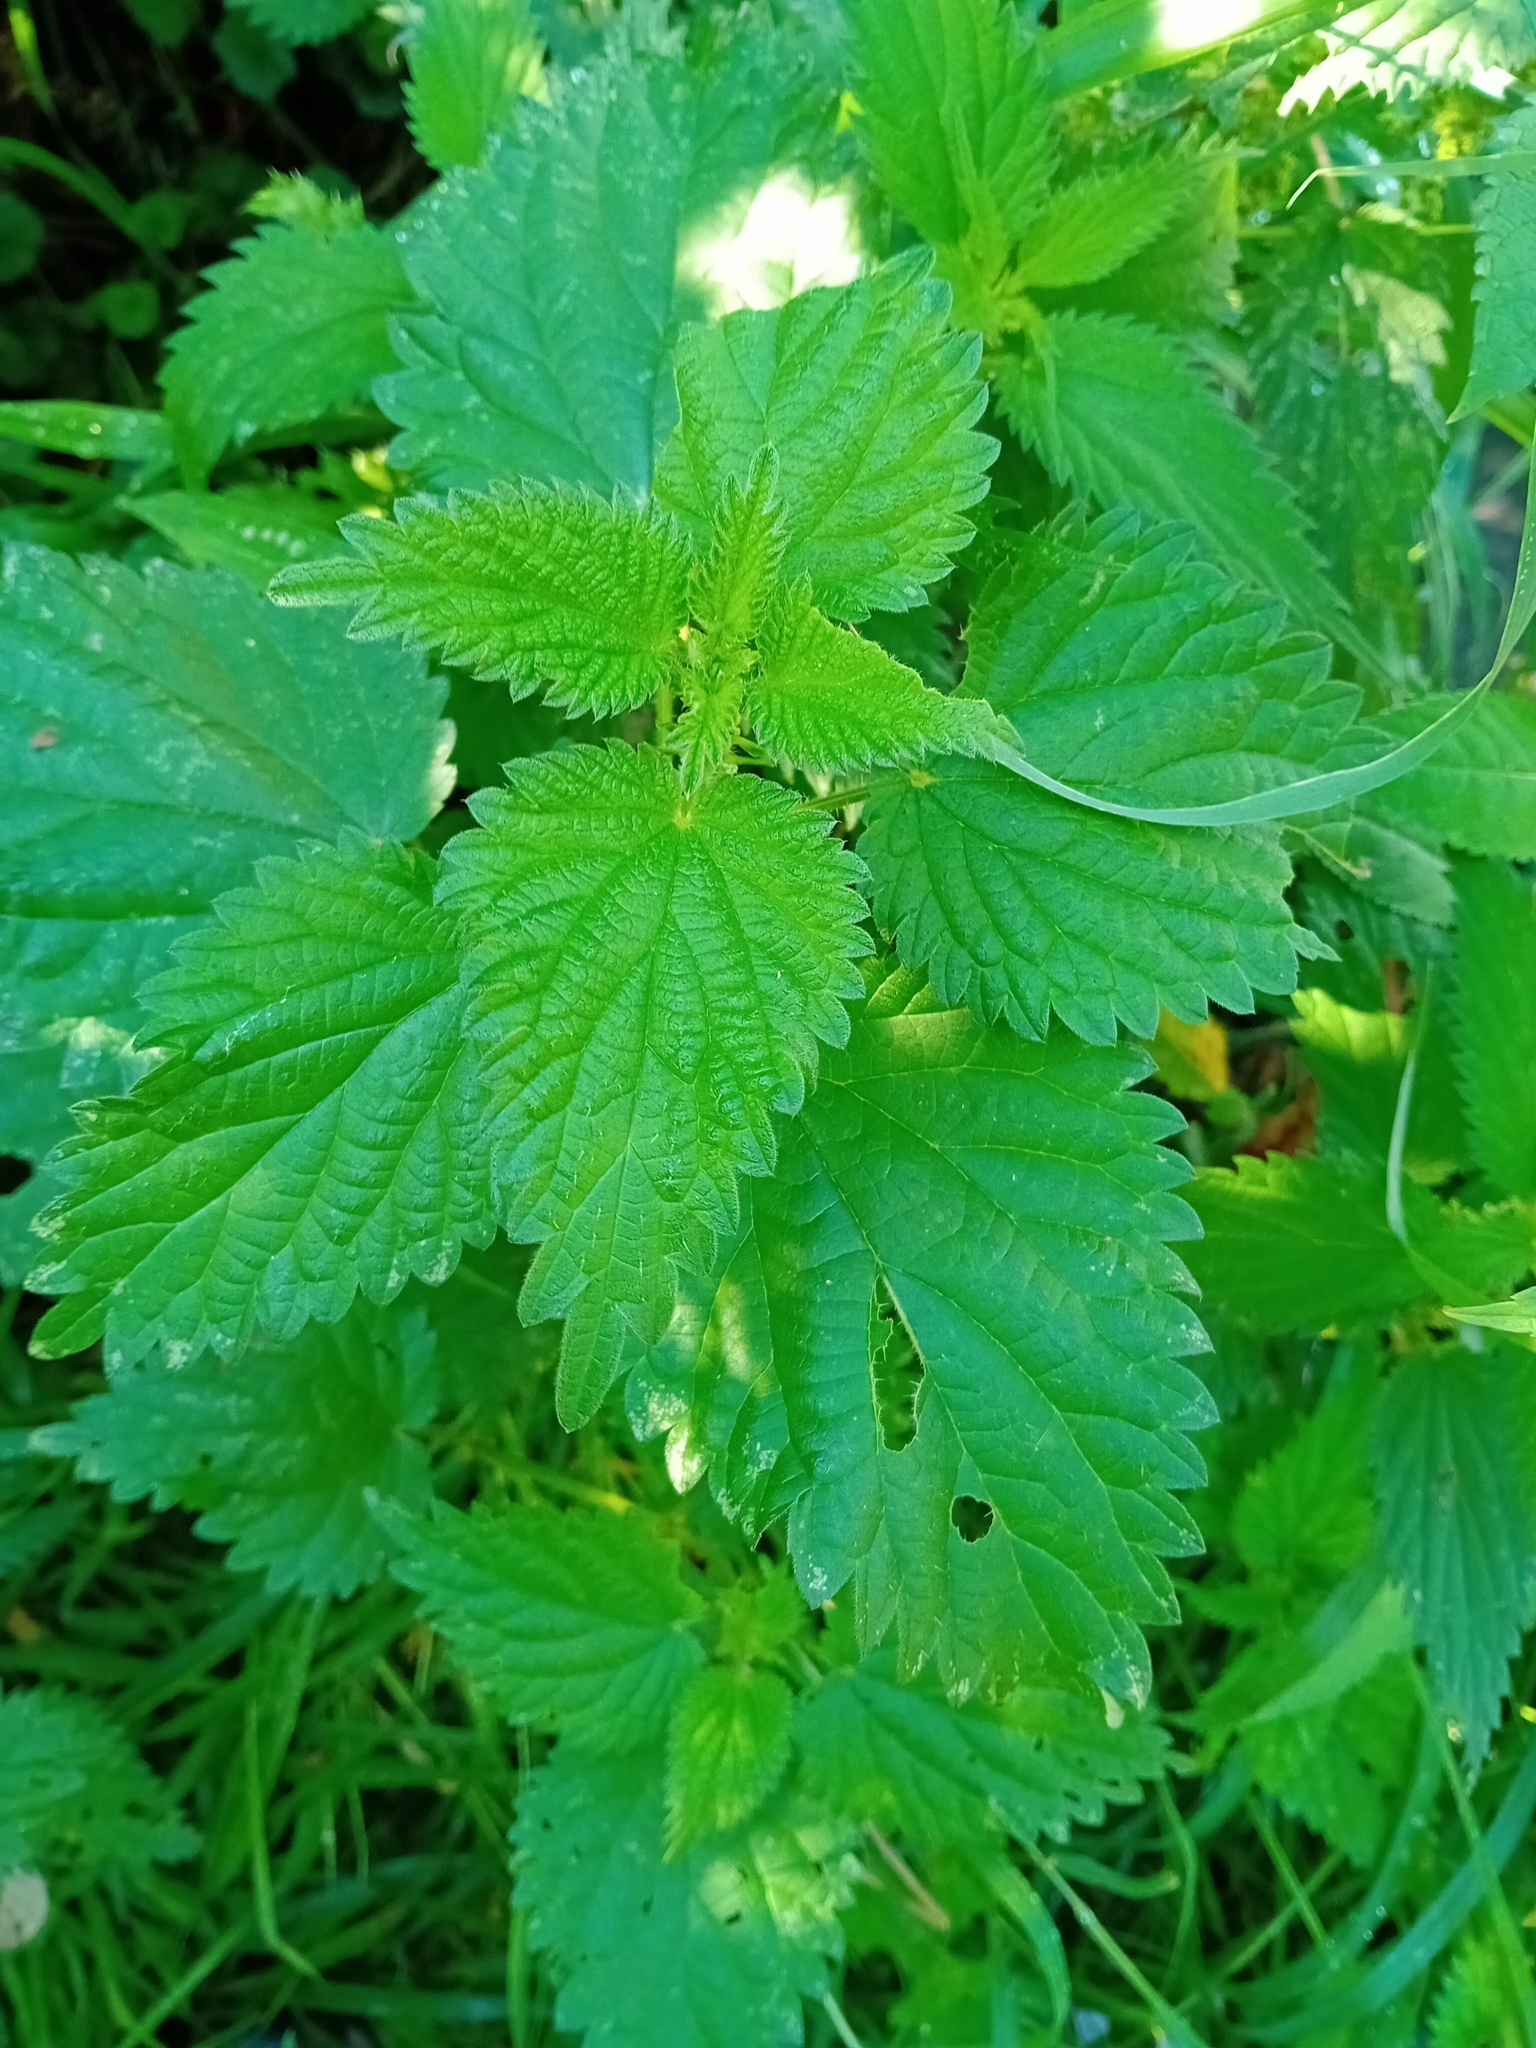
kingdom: Plantae
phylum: Tracheophyta
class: Magnoliopsida
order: Rosales
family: Urticaceae
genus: Urtica
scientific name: Urtica dioica
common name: Common nettle
